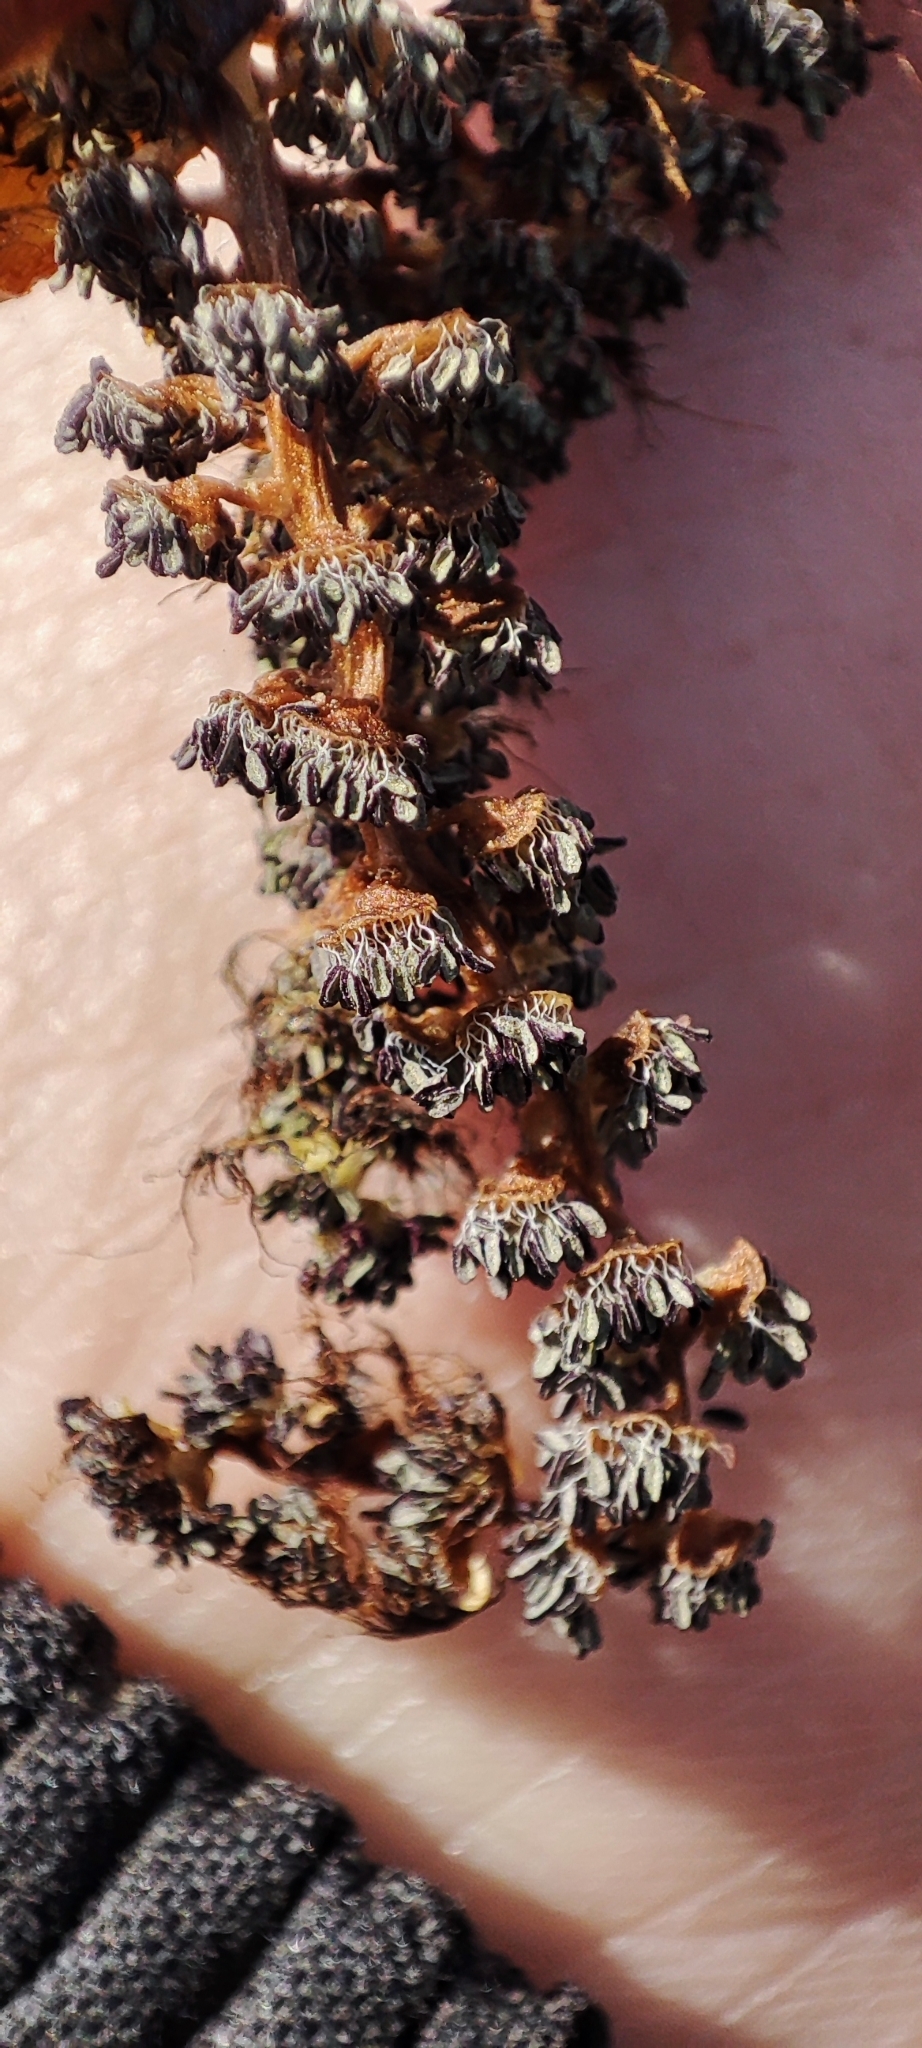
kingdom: Plantae
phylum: Tracheophyta
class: Magnoliopsida
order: Malpighiales
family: Salicaceae
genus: Populus
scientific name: Populus nigra
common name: Black poplar
